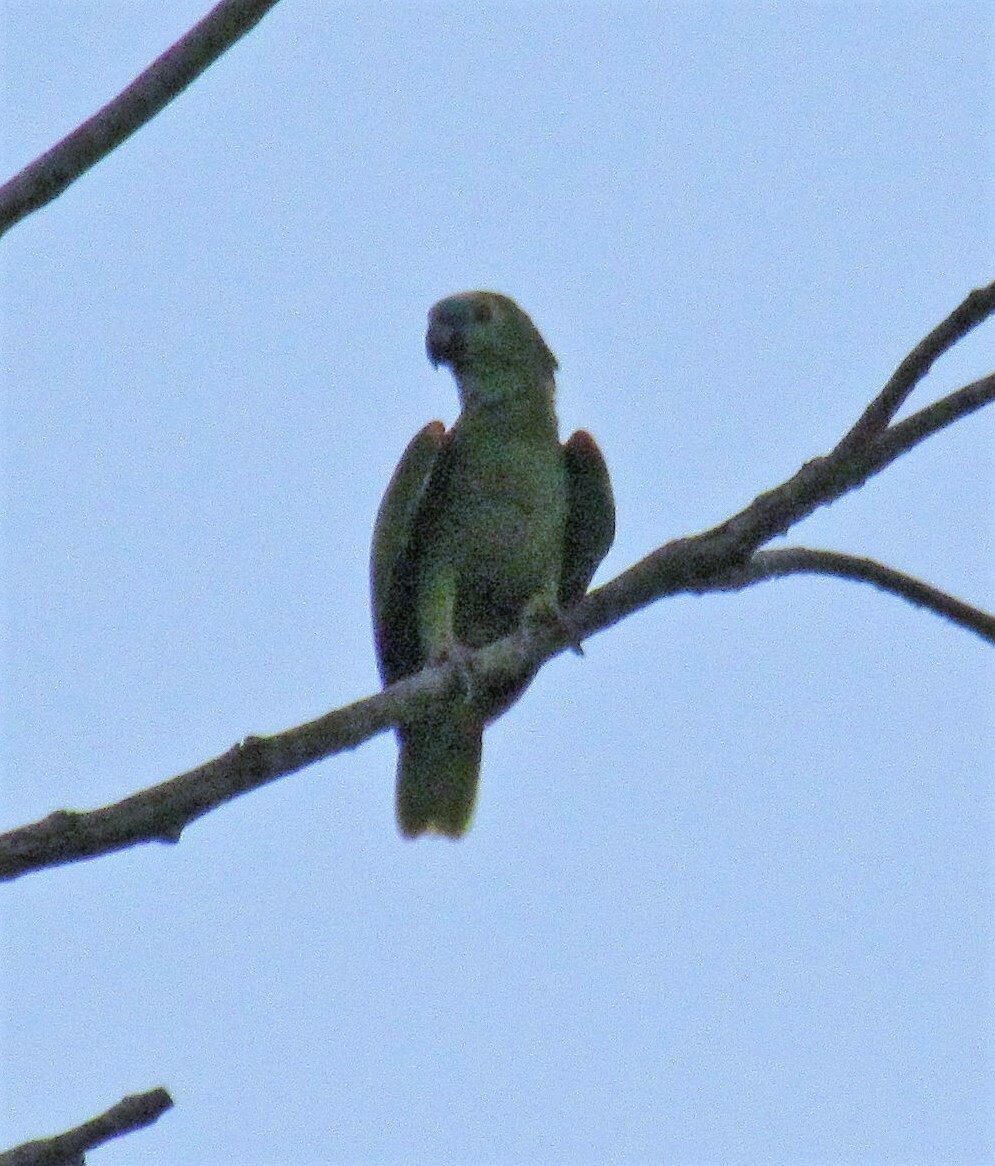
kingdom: Animalia
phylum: Chordata
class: Aves
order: Psittaciformes
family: Psittacidae
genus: Amazona
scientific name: Amazona aestiva
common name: Turquoise-fronted amazon
